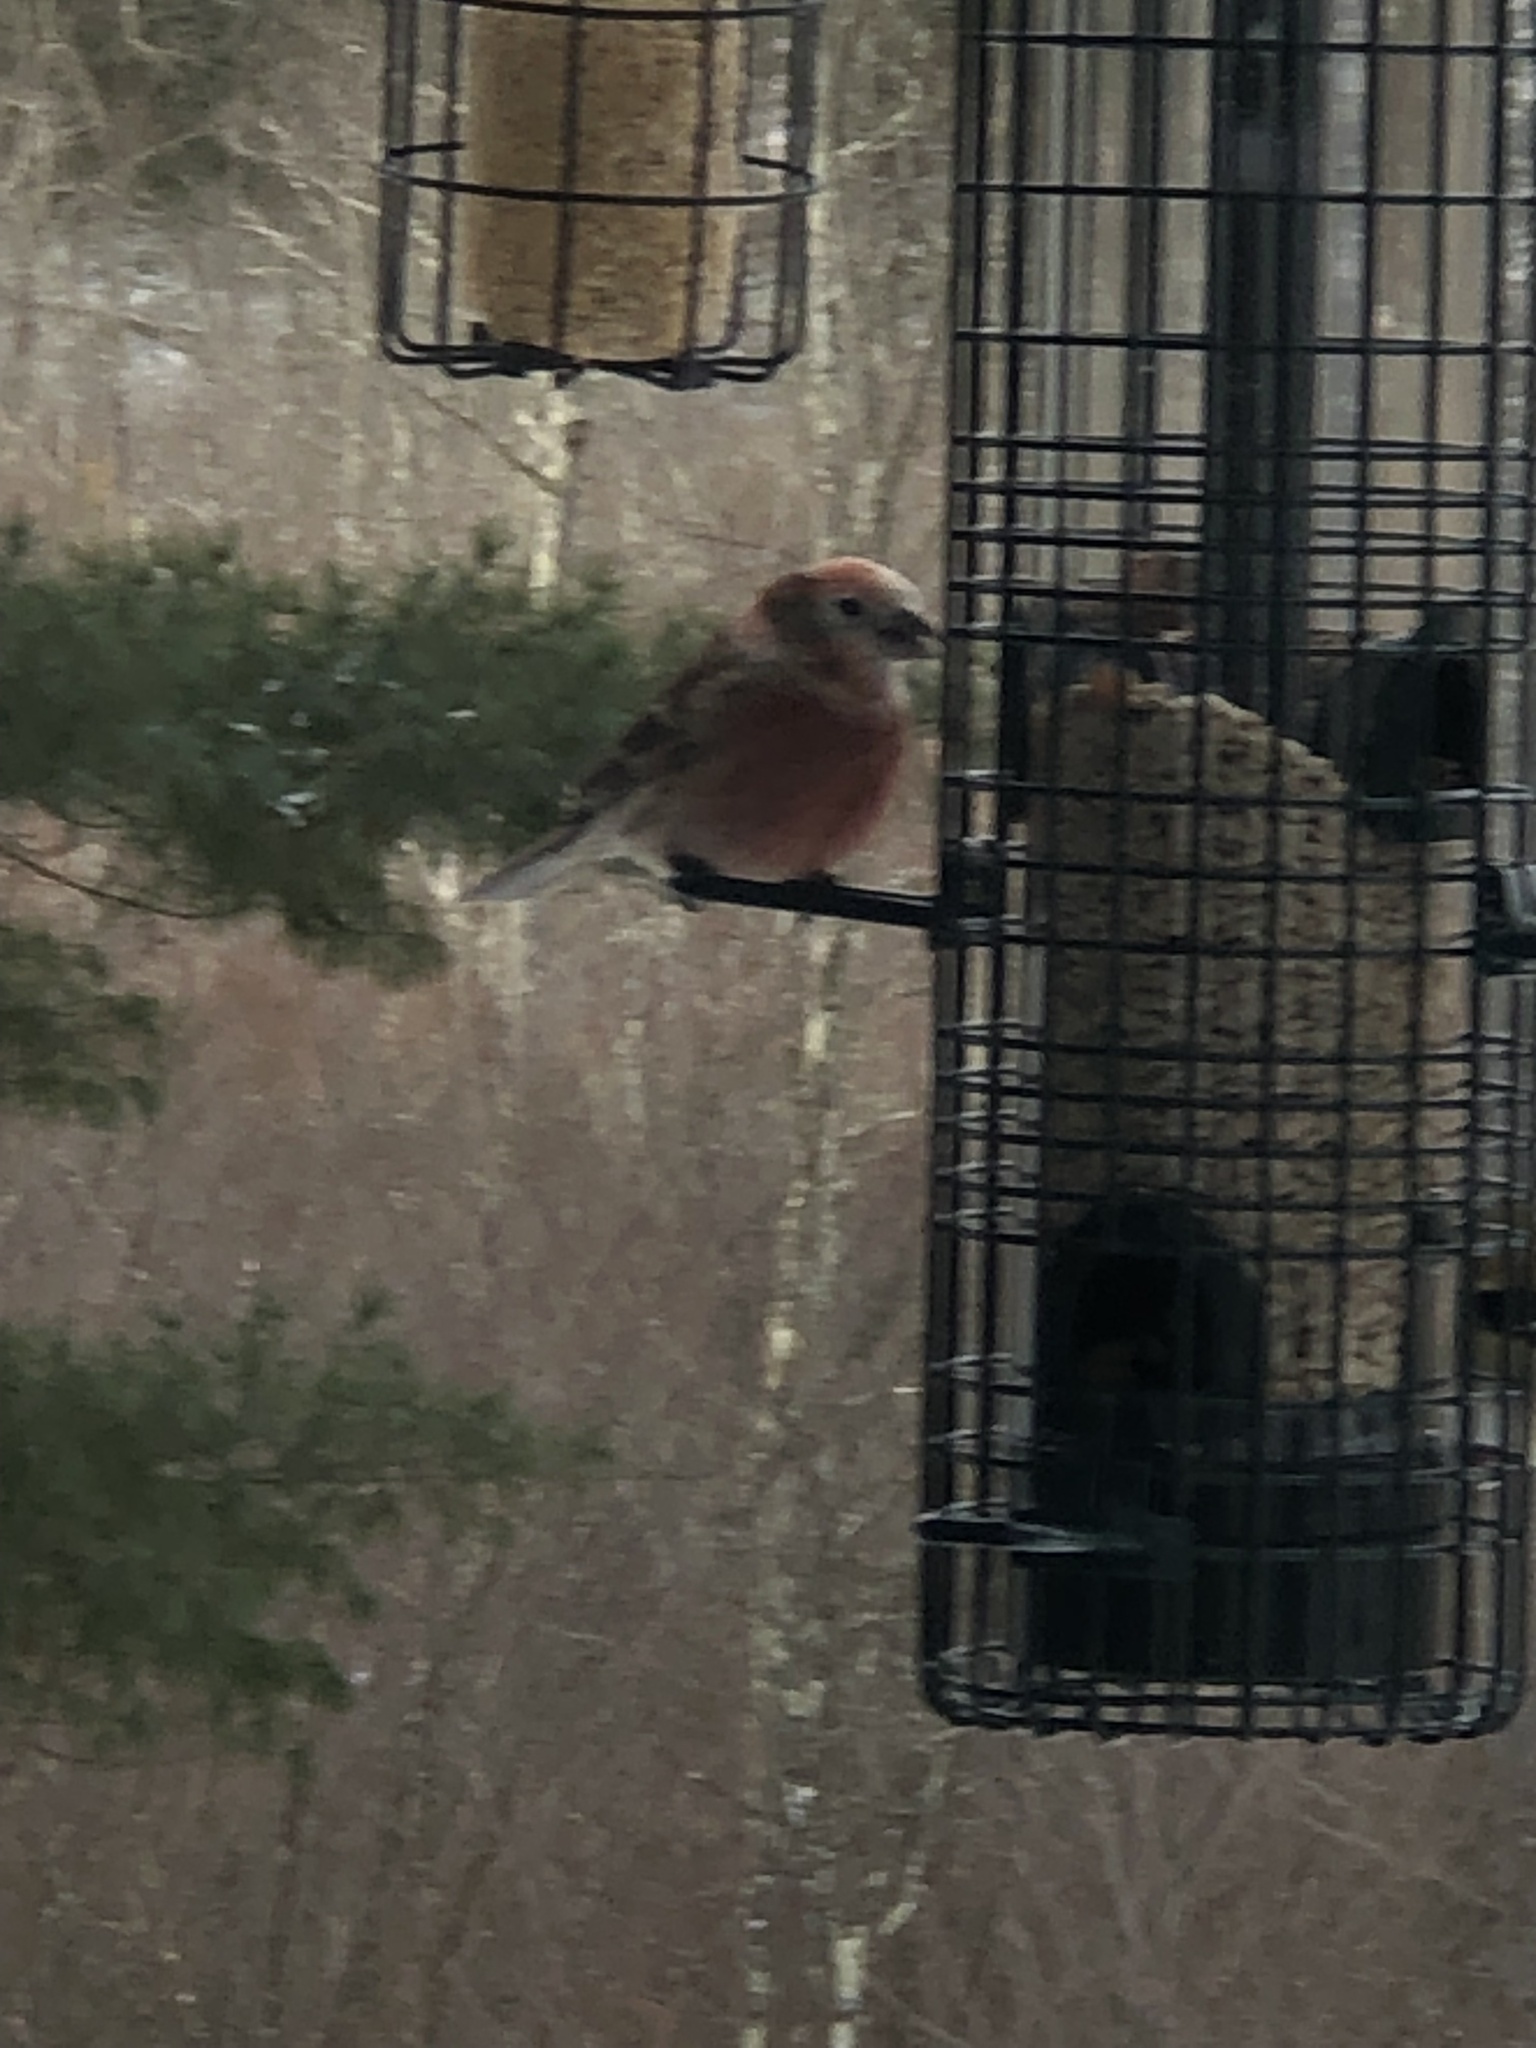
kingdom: Animalia
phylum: Chordata
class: Aves
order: Passeriformes
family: Fringillidae
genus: Haemorhous
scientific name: Haemorhous mexicanus
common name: House finch
